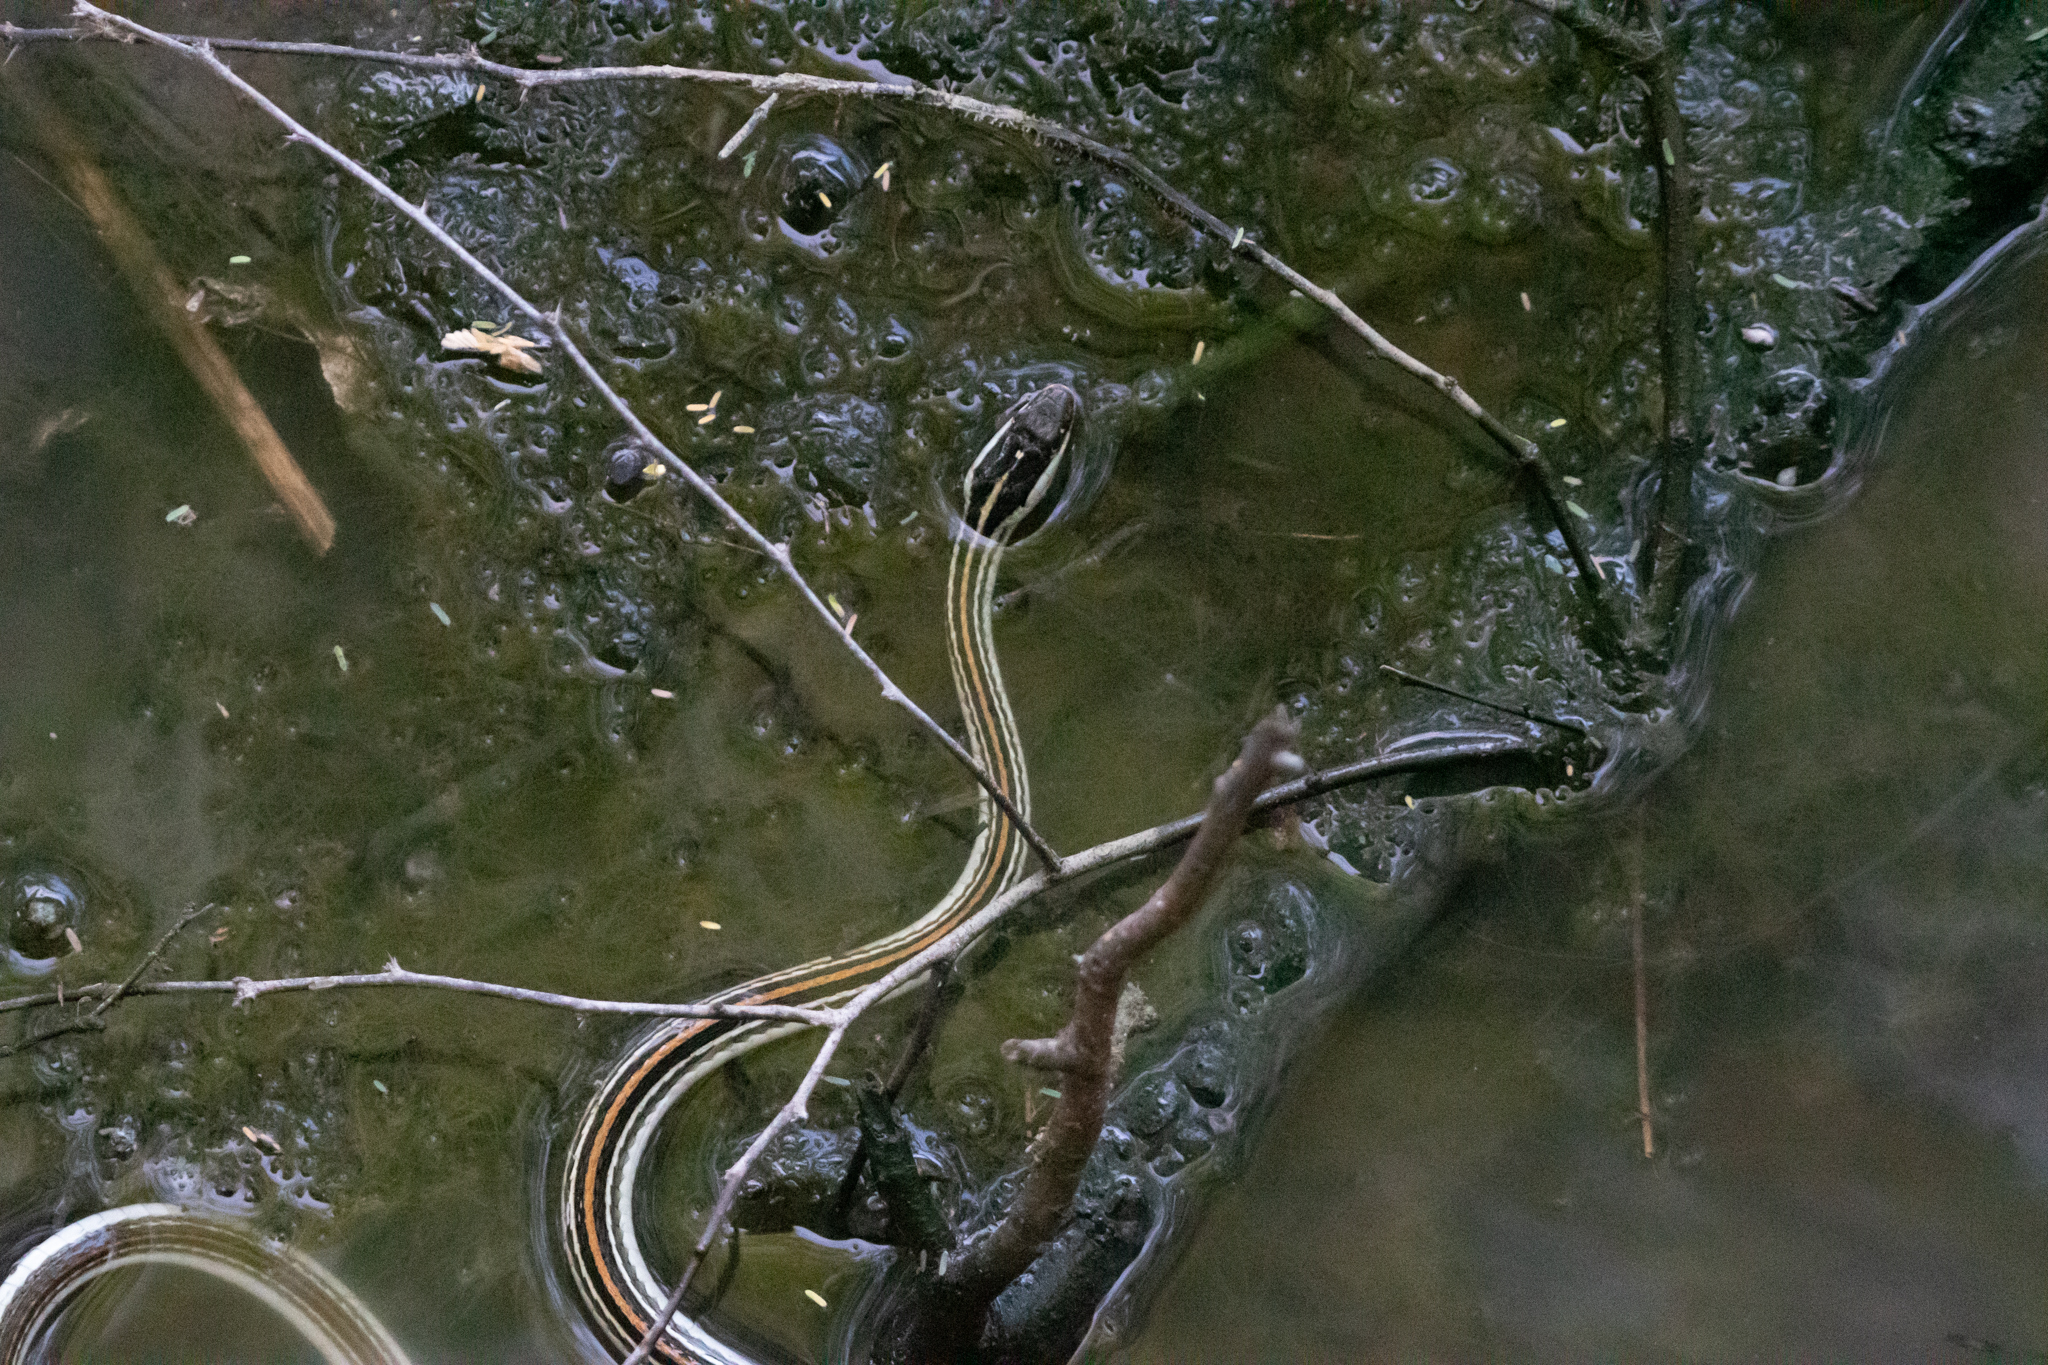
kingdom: Animalia
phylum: Chordata
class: Squamata
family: Colubridae
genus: Thamnophis
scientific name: Thamnophis proximus
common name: Western ribbon snake
